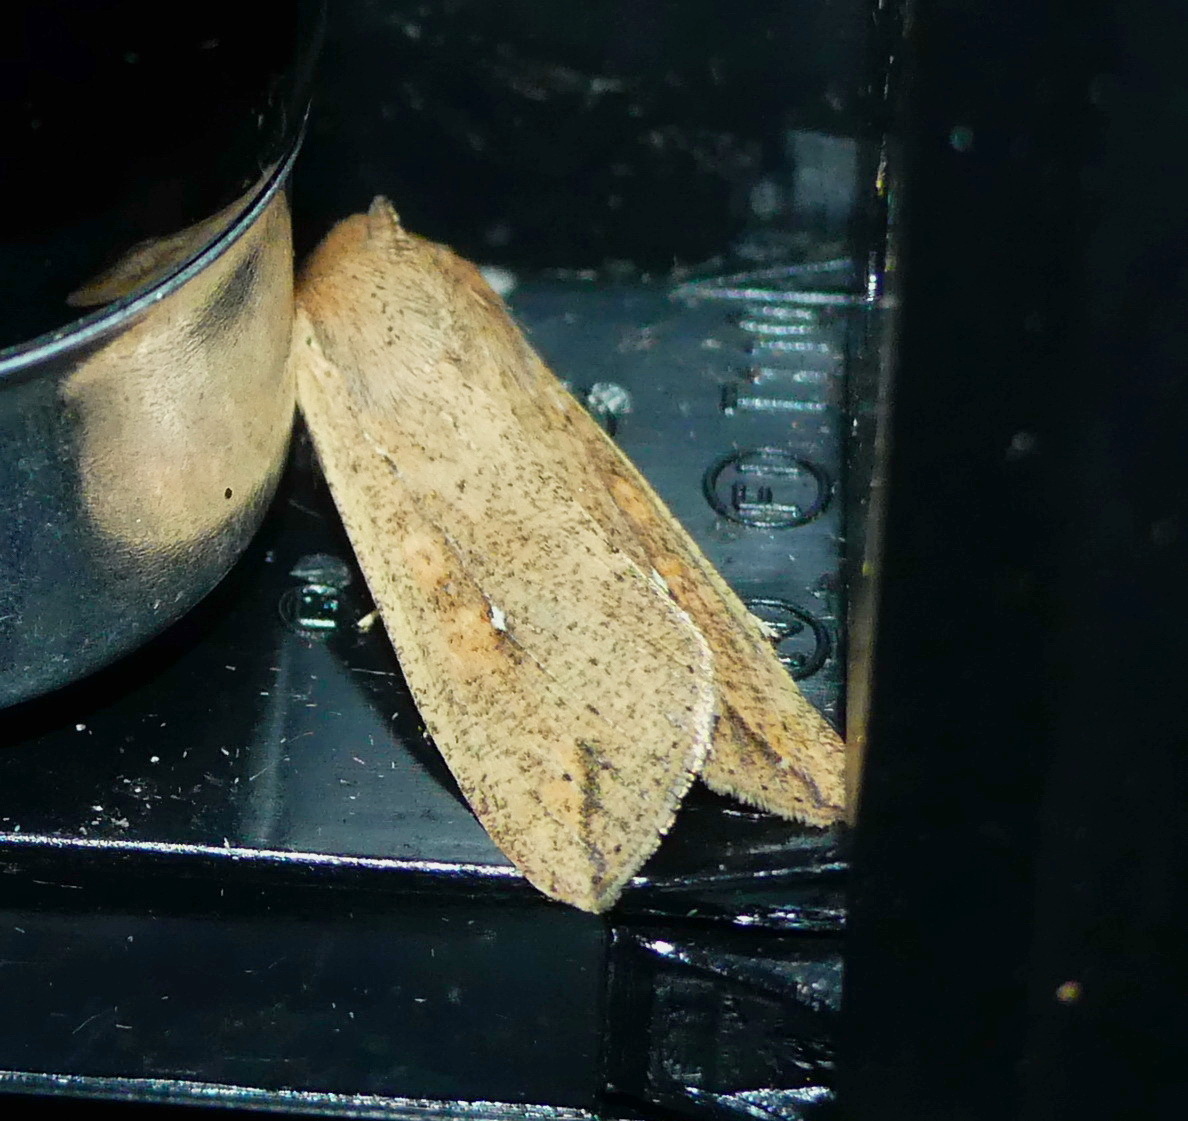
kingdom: Animalia
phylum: Arthropoda
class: Insecta
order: Lepidoptera
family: Noctuidae
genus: Mythimna
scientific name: Mythimna unipuncta
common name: White-speck
